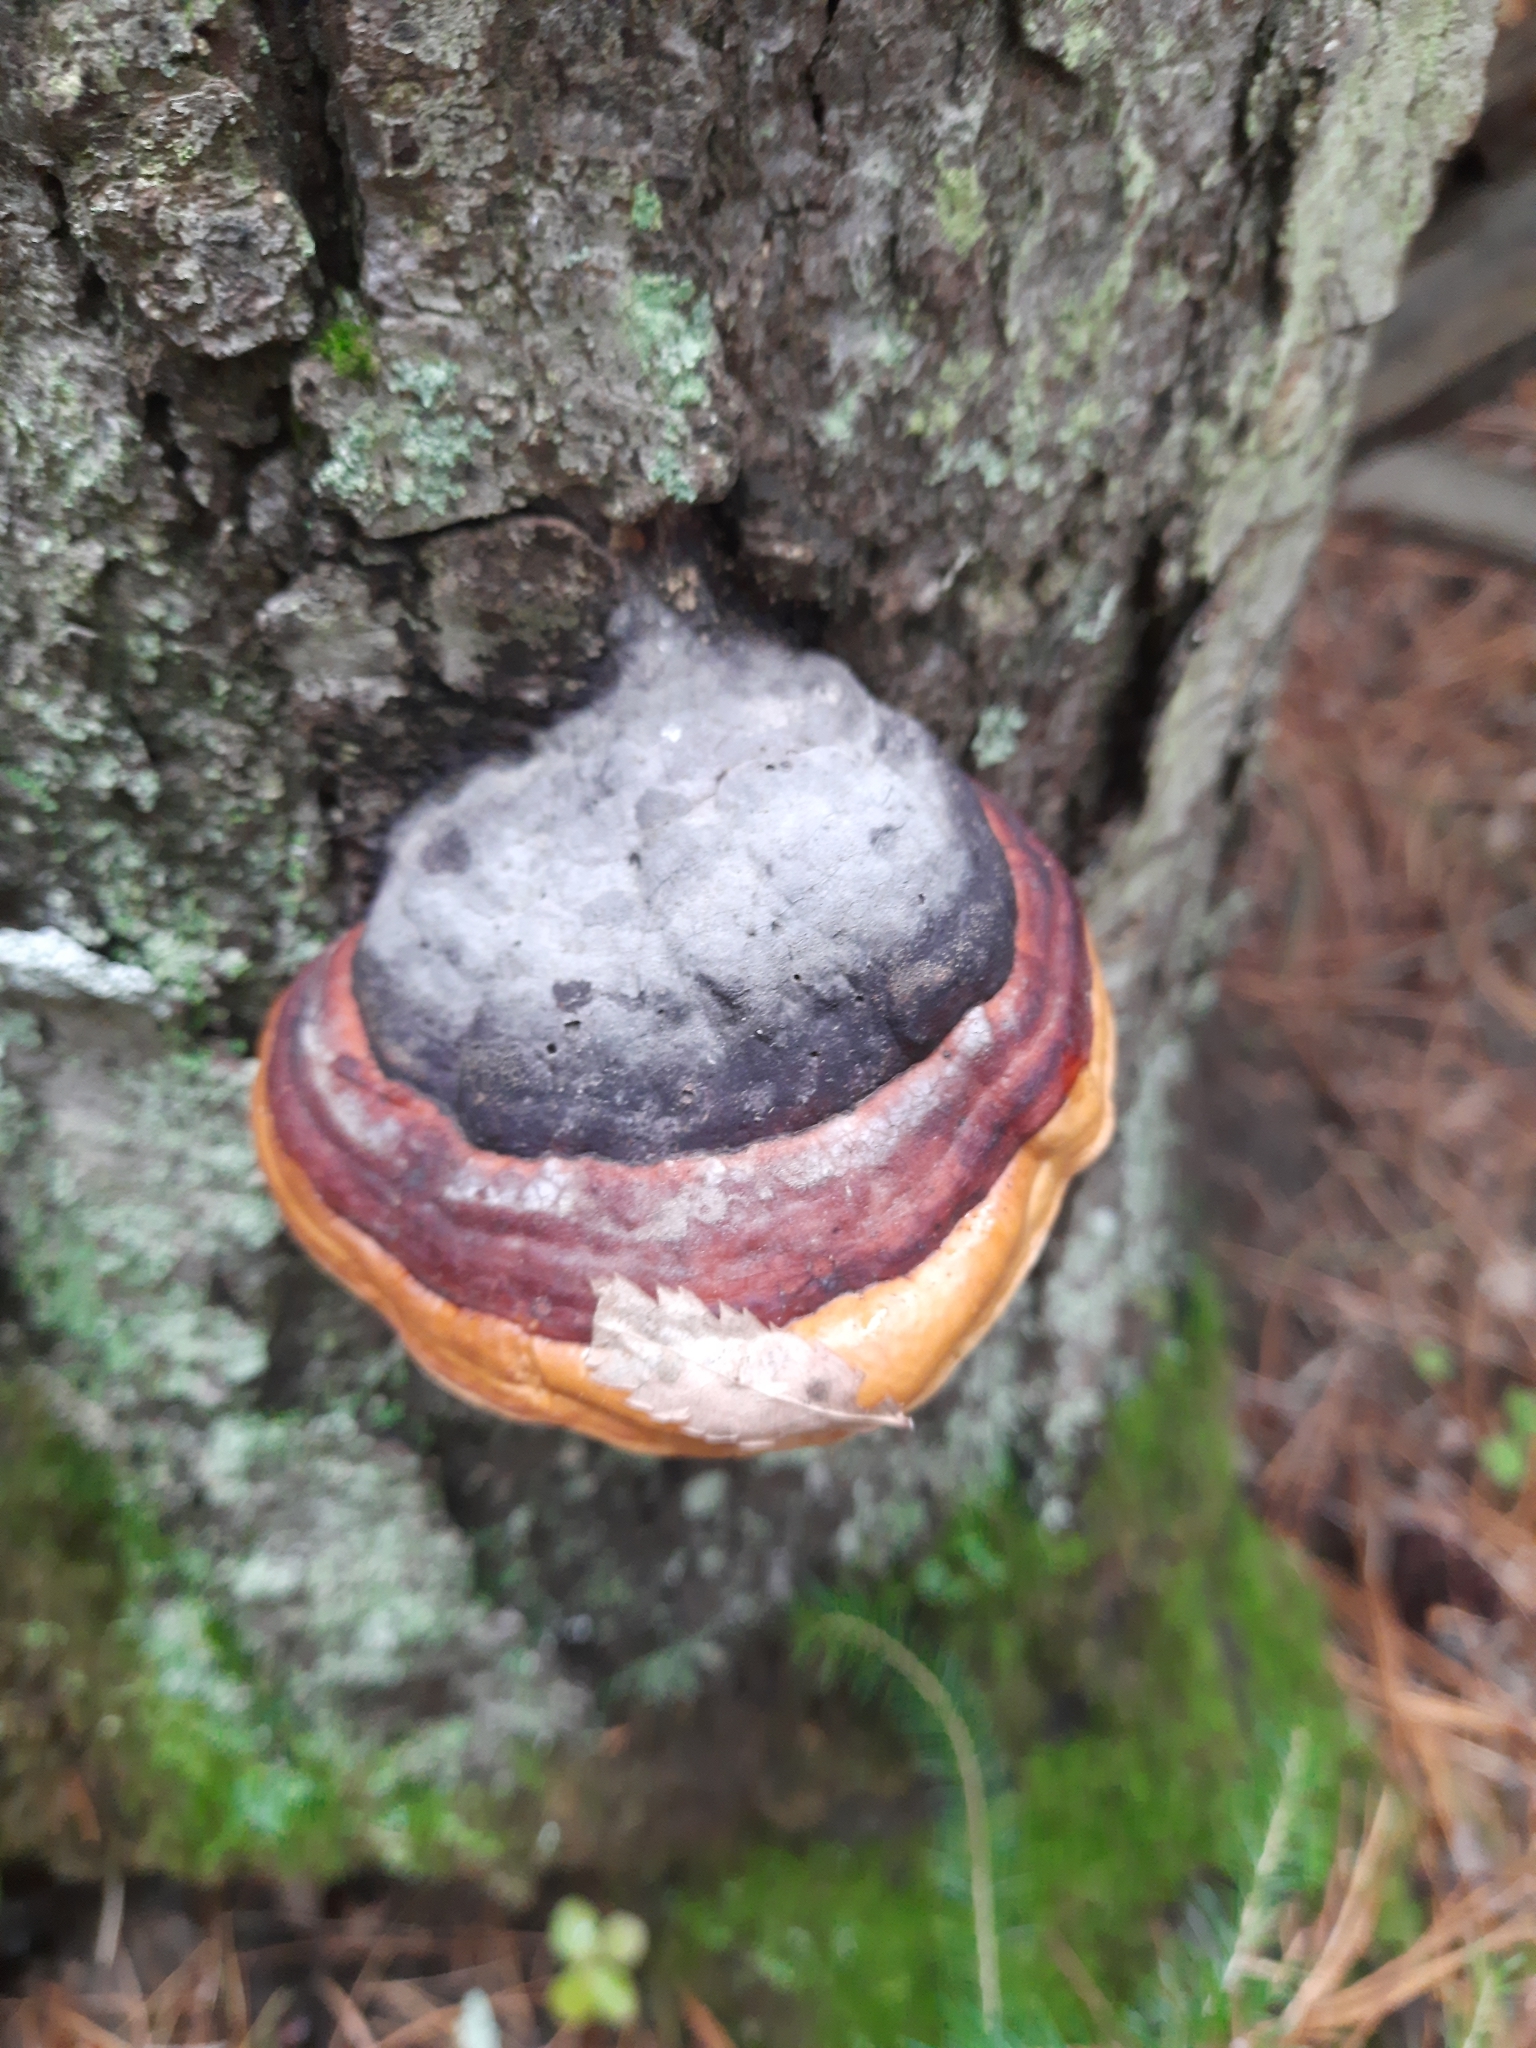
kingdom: Fungi
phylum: Basidiomycota
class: Agaricomycetes
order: Polyporales
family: Fomitopsidaceae
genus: Fomitopsis
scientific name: Fomitopsis pinicola
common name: Red-belted bracket
